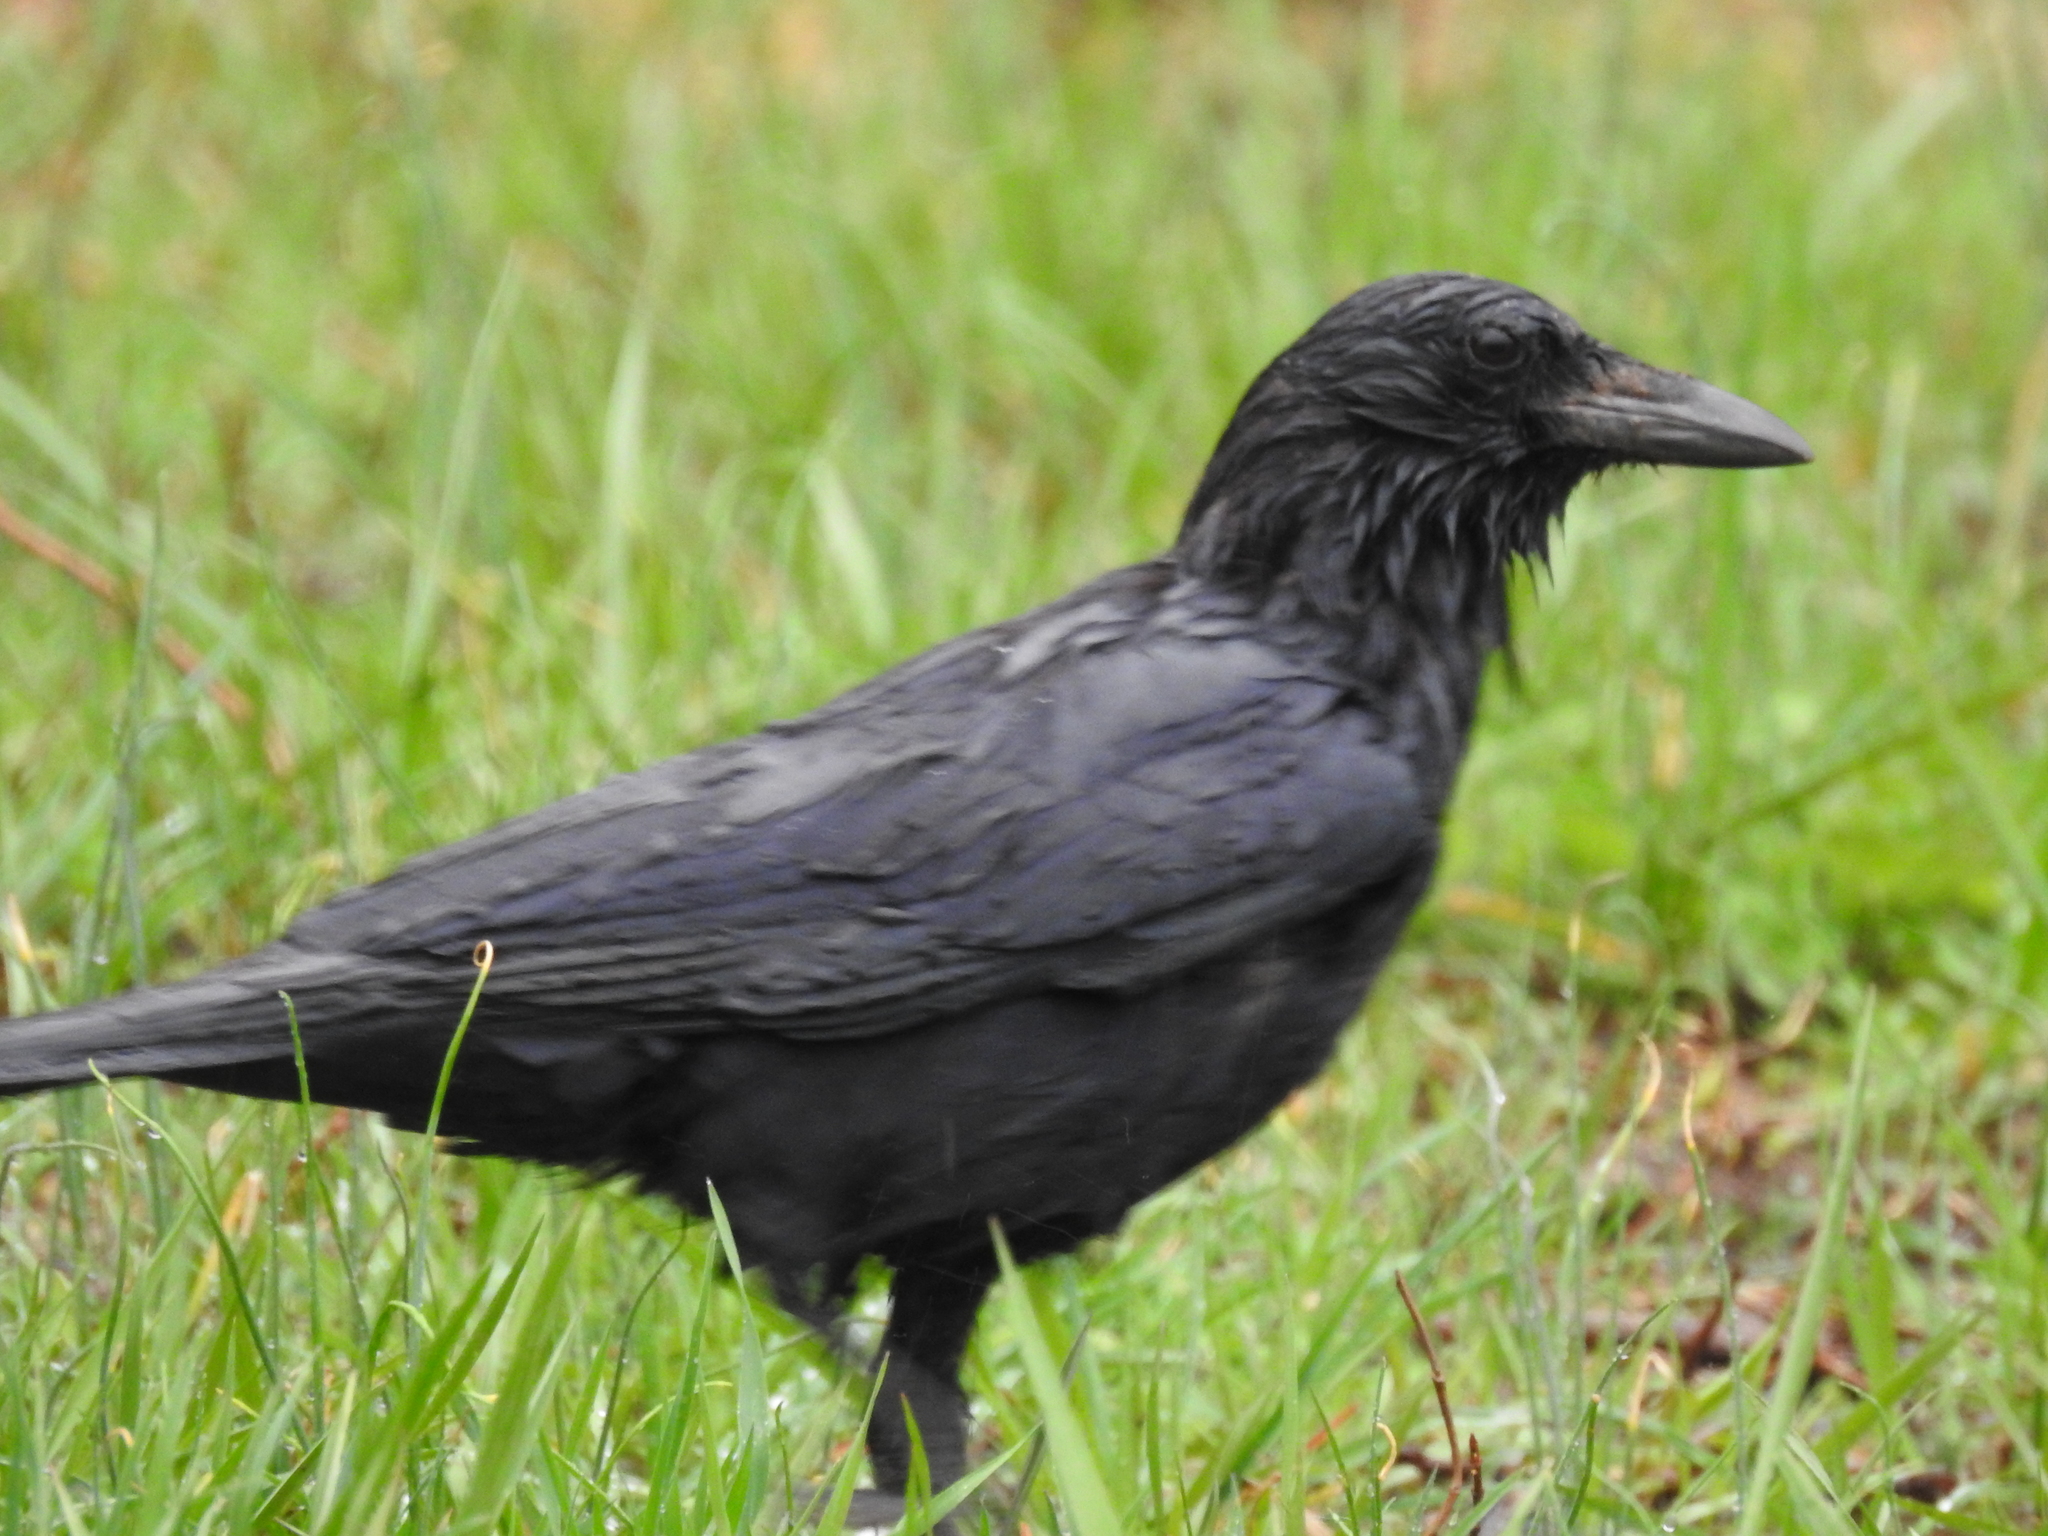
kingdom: Animalia
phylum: Chordata
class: Aves
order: Passeriformes
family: Corvidae
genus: Corvus
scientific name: Corvus brachyrhynchos
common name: American crow
